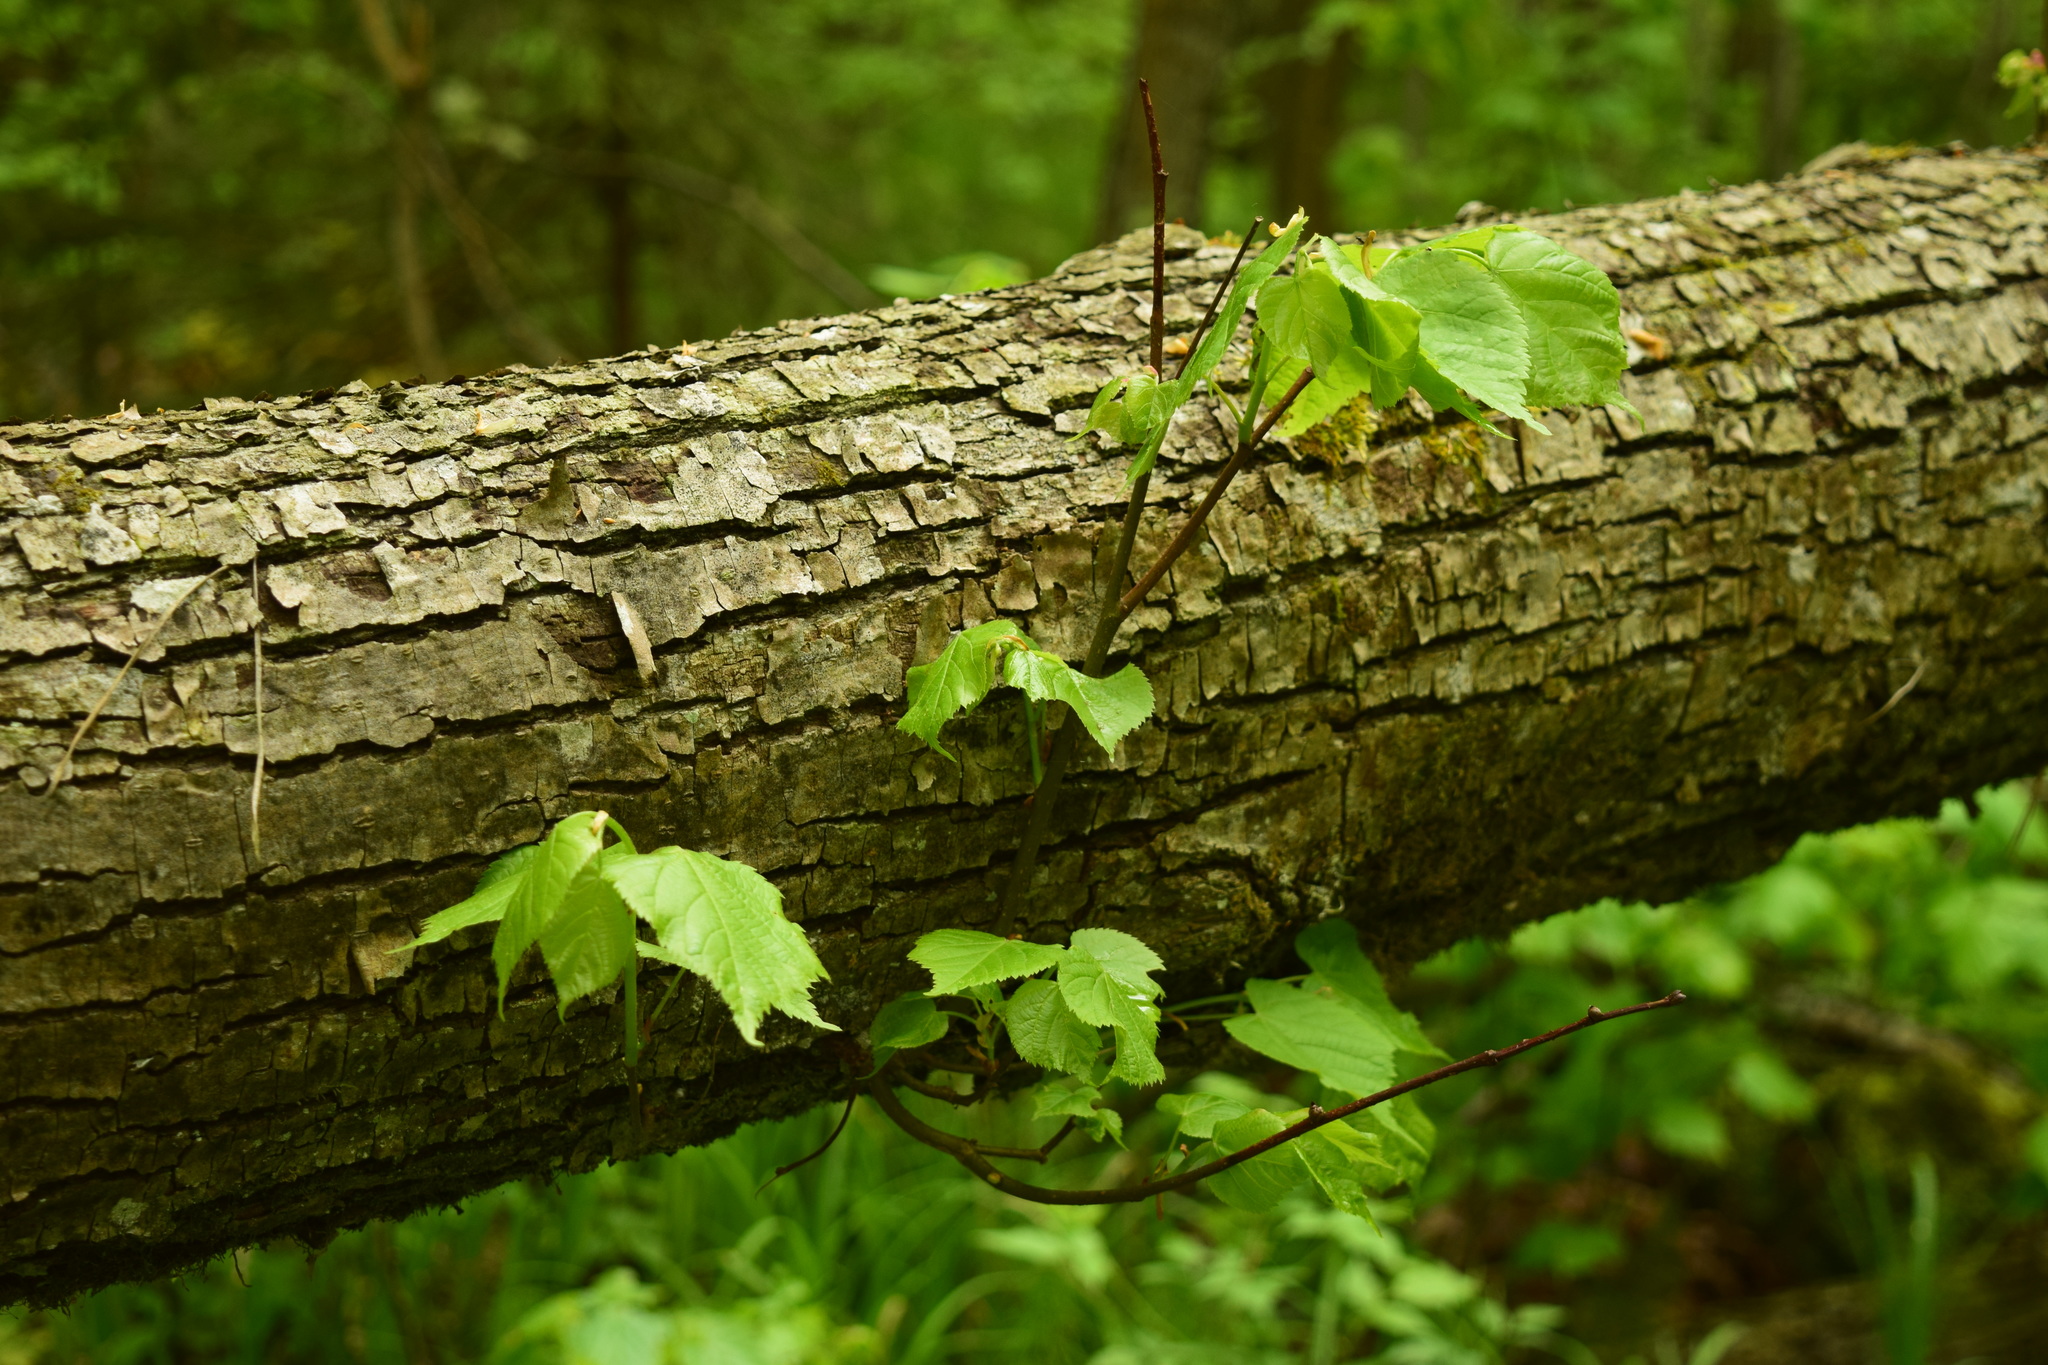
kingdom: Plantae
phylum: Tracheophyta
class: Magnoliopsida
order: Malvales
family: Malvaceae
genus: Tilia
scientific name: Tilia cordata
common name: Small-leaved lime
